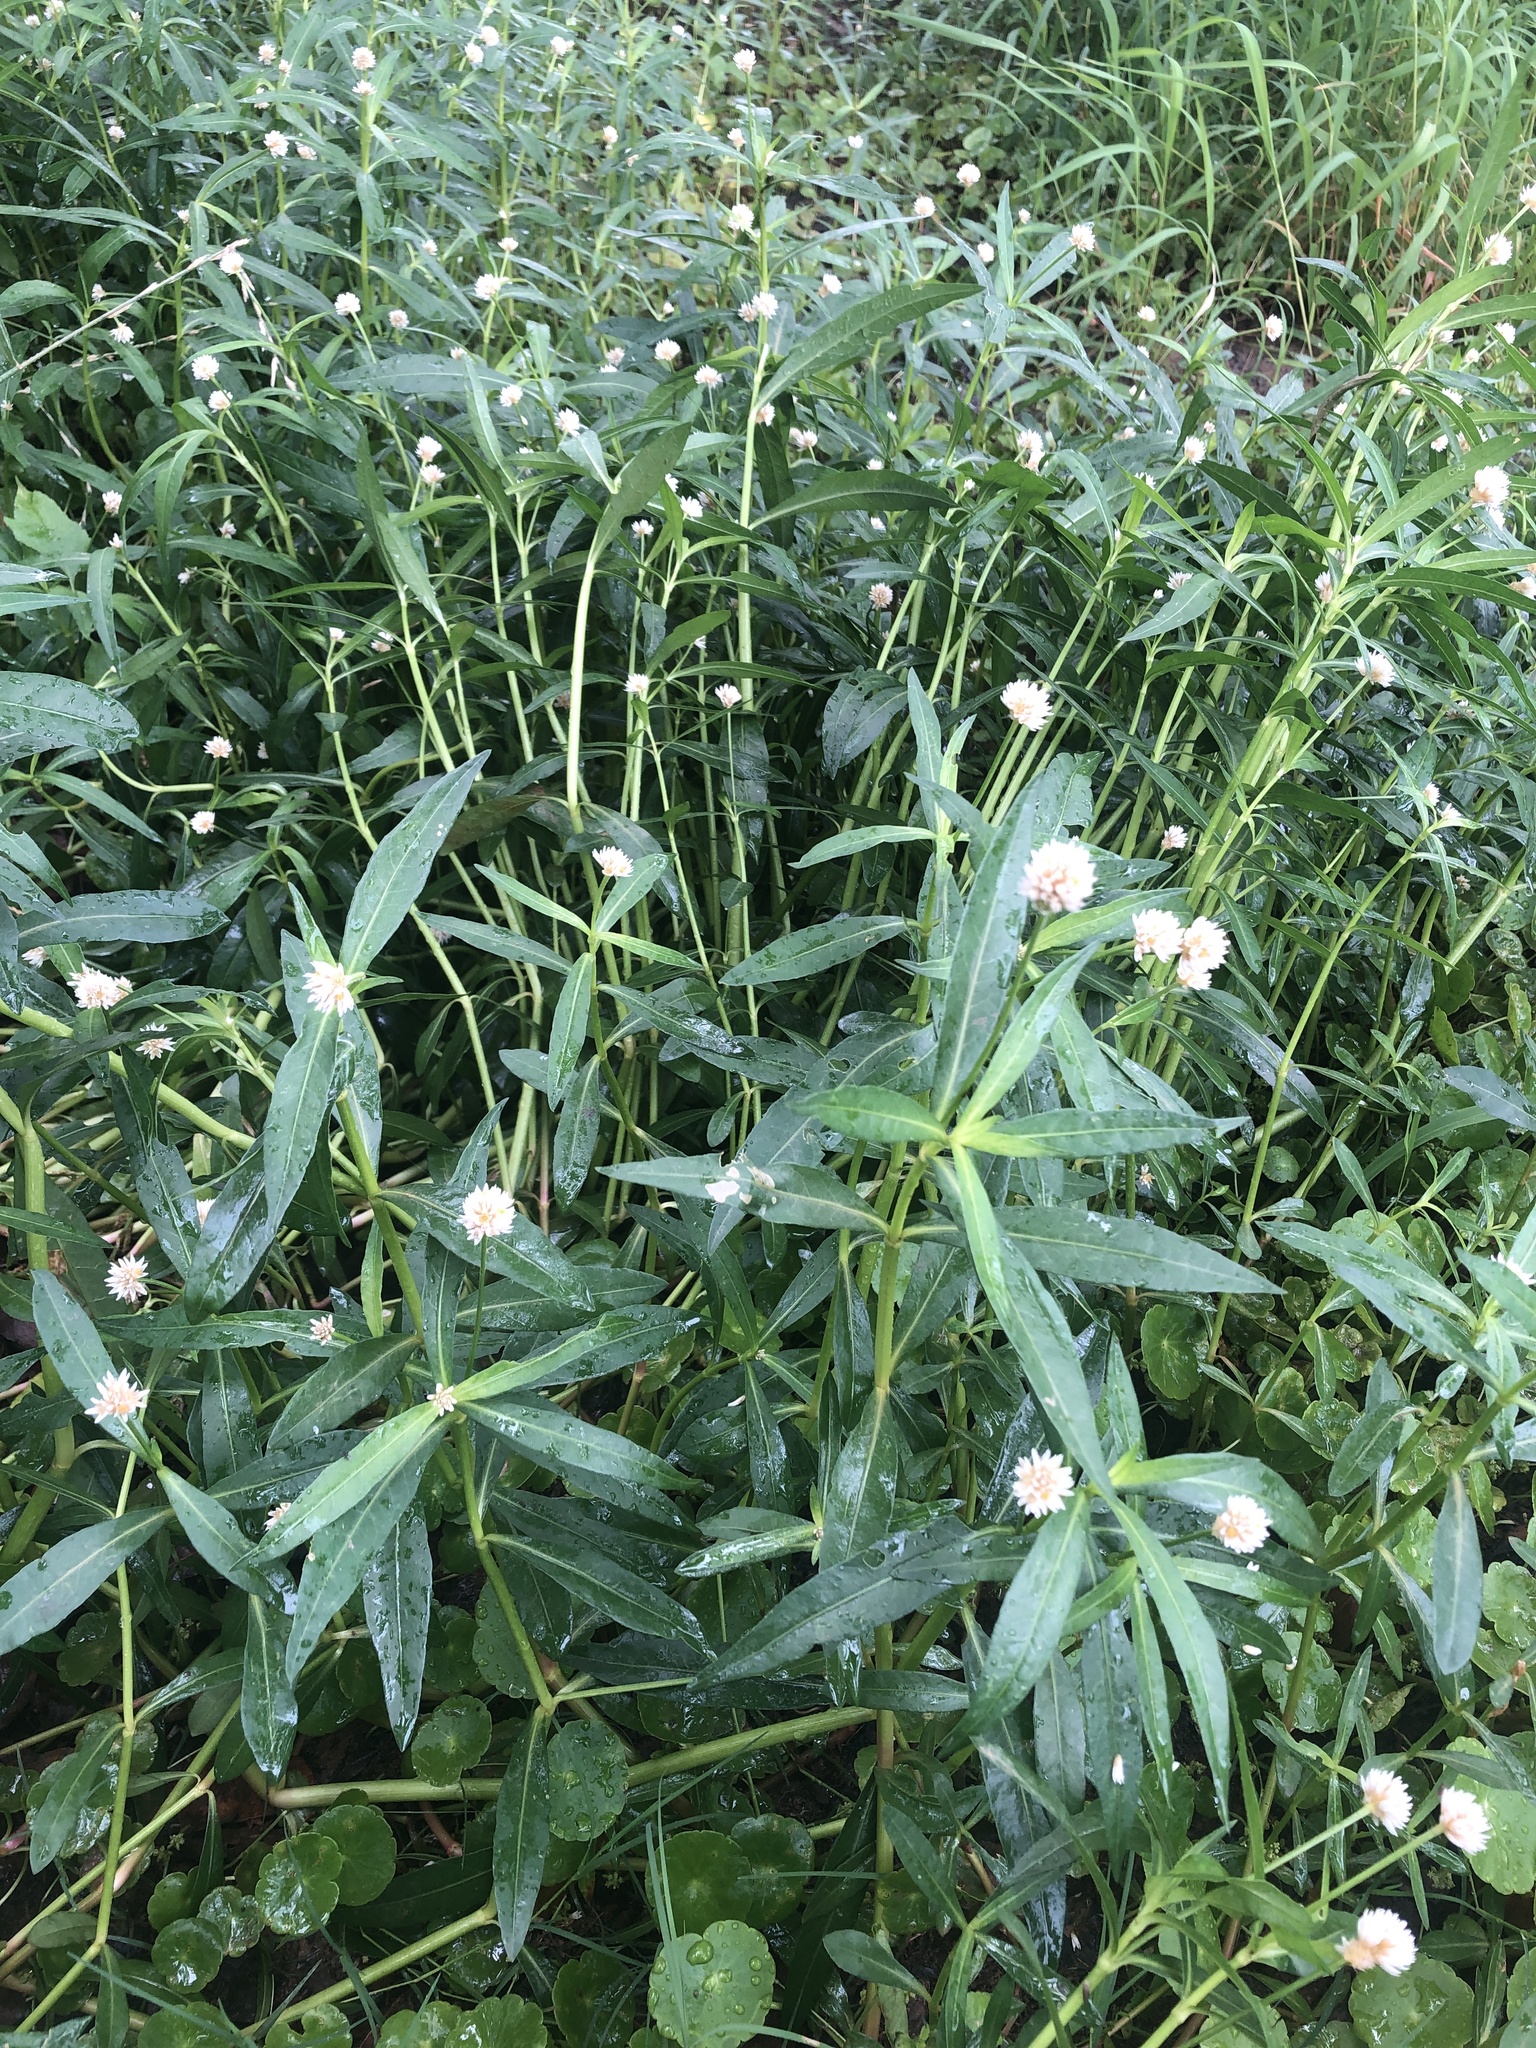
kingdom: Plantae
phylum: Tracheophyta
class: Magnoliopsida
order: Caryophyllales
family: Amaranthaceae
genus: Alternanthera
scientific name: Alternanthera philoxeroides
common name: Alligatorweed
